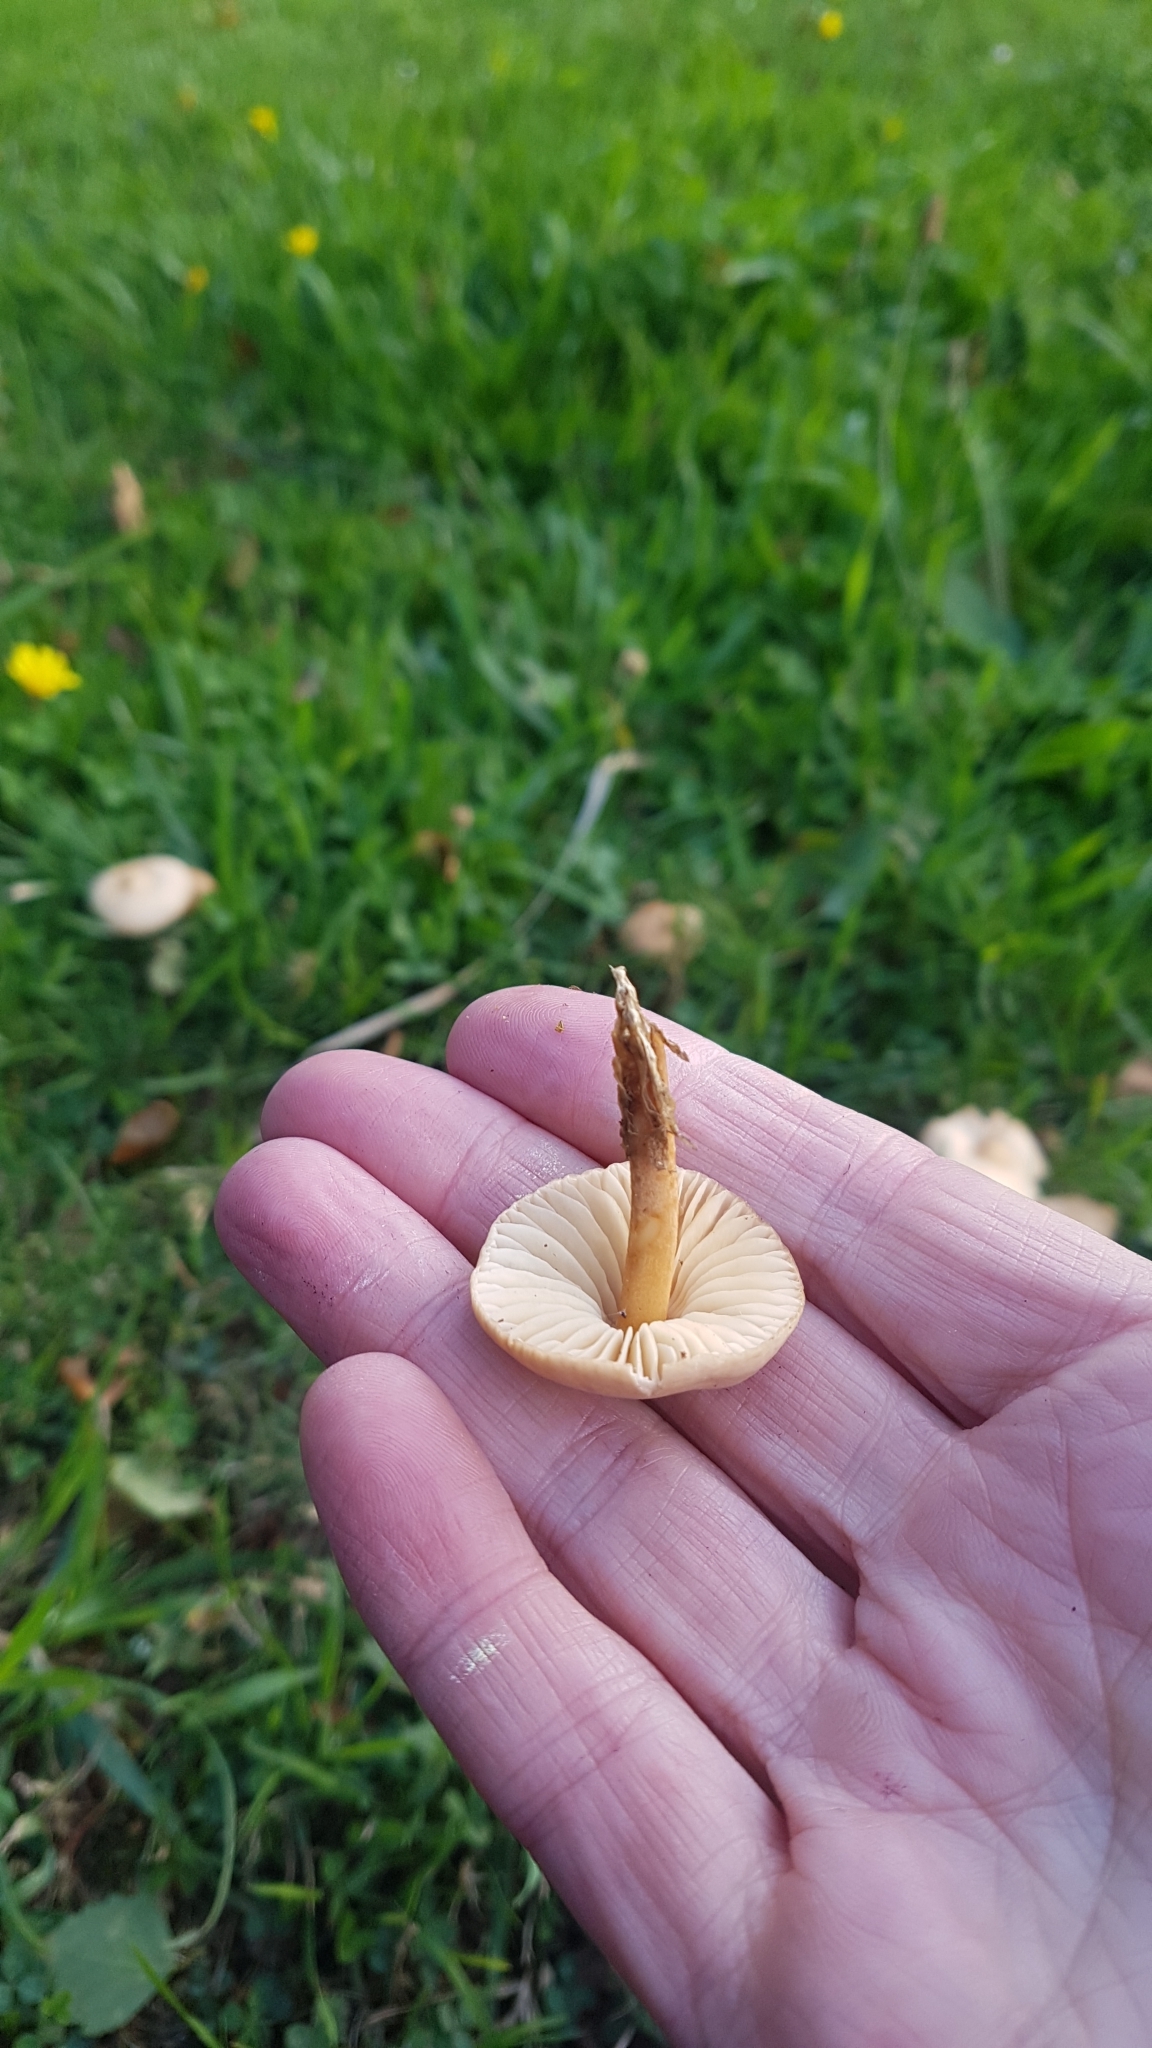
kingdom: Fungi
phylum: Basidiomycota
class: Agaricomycetes
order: Agaricales
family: Marasmiaceae
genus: Marasmius
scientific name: Marasmius oreades
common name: Fairy ring champignon
